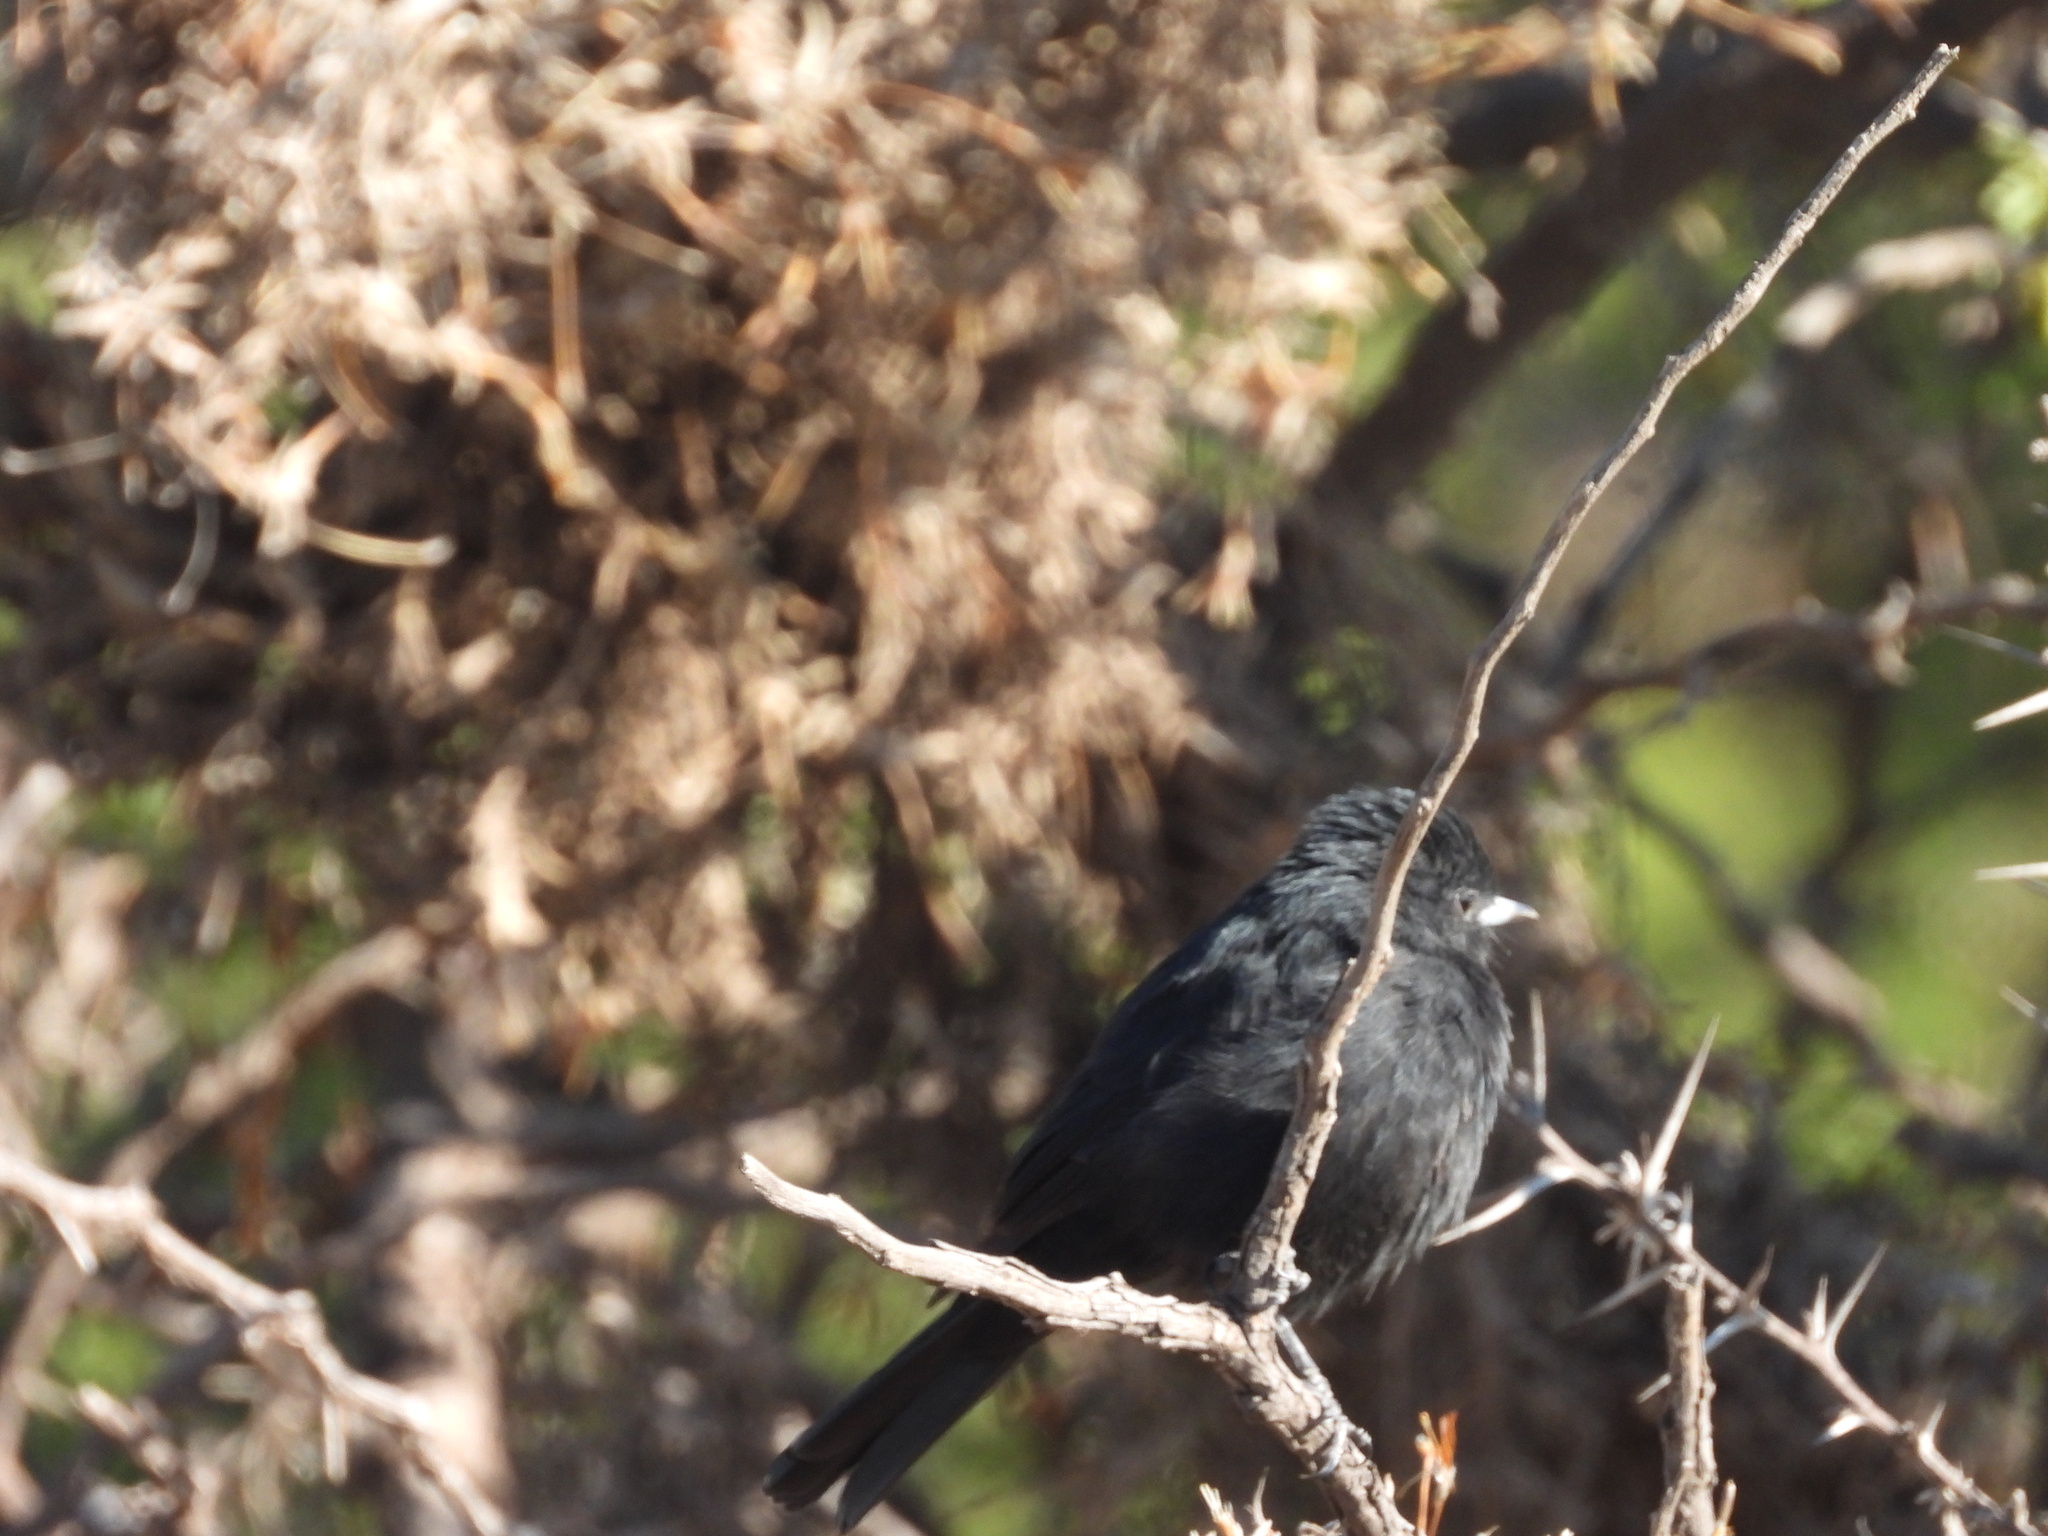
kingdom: Animalia
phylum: Chordata
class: Aves
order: Passeriformes
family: Tyrannidae
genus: Knipolegus
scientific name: Knipolegus aterrimus
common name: White-winged black tyrant
